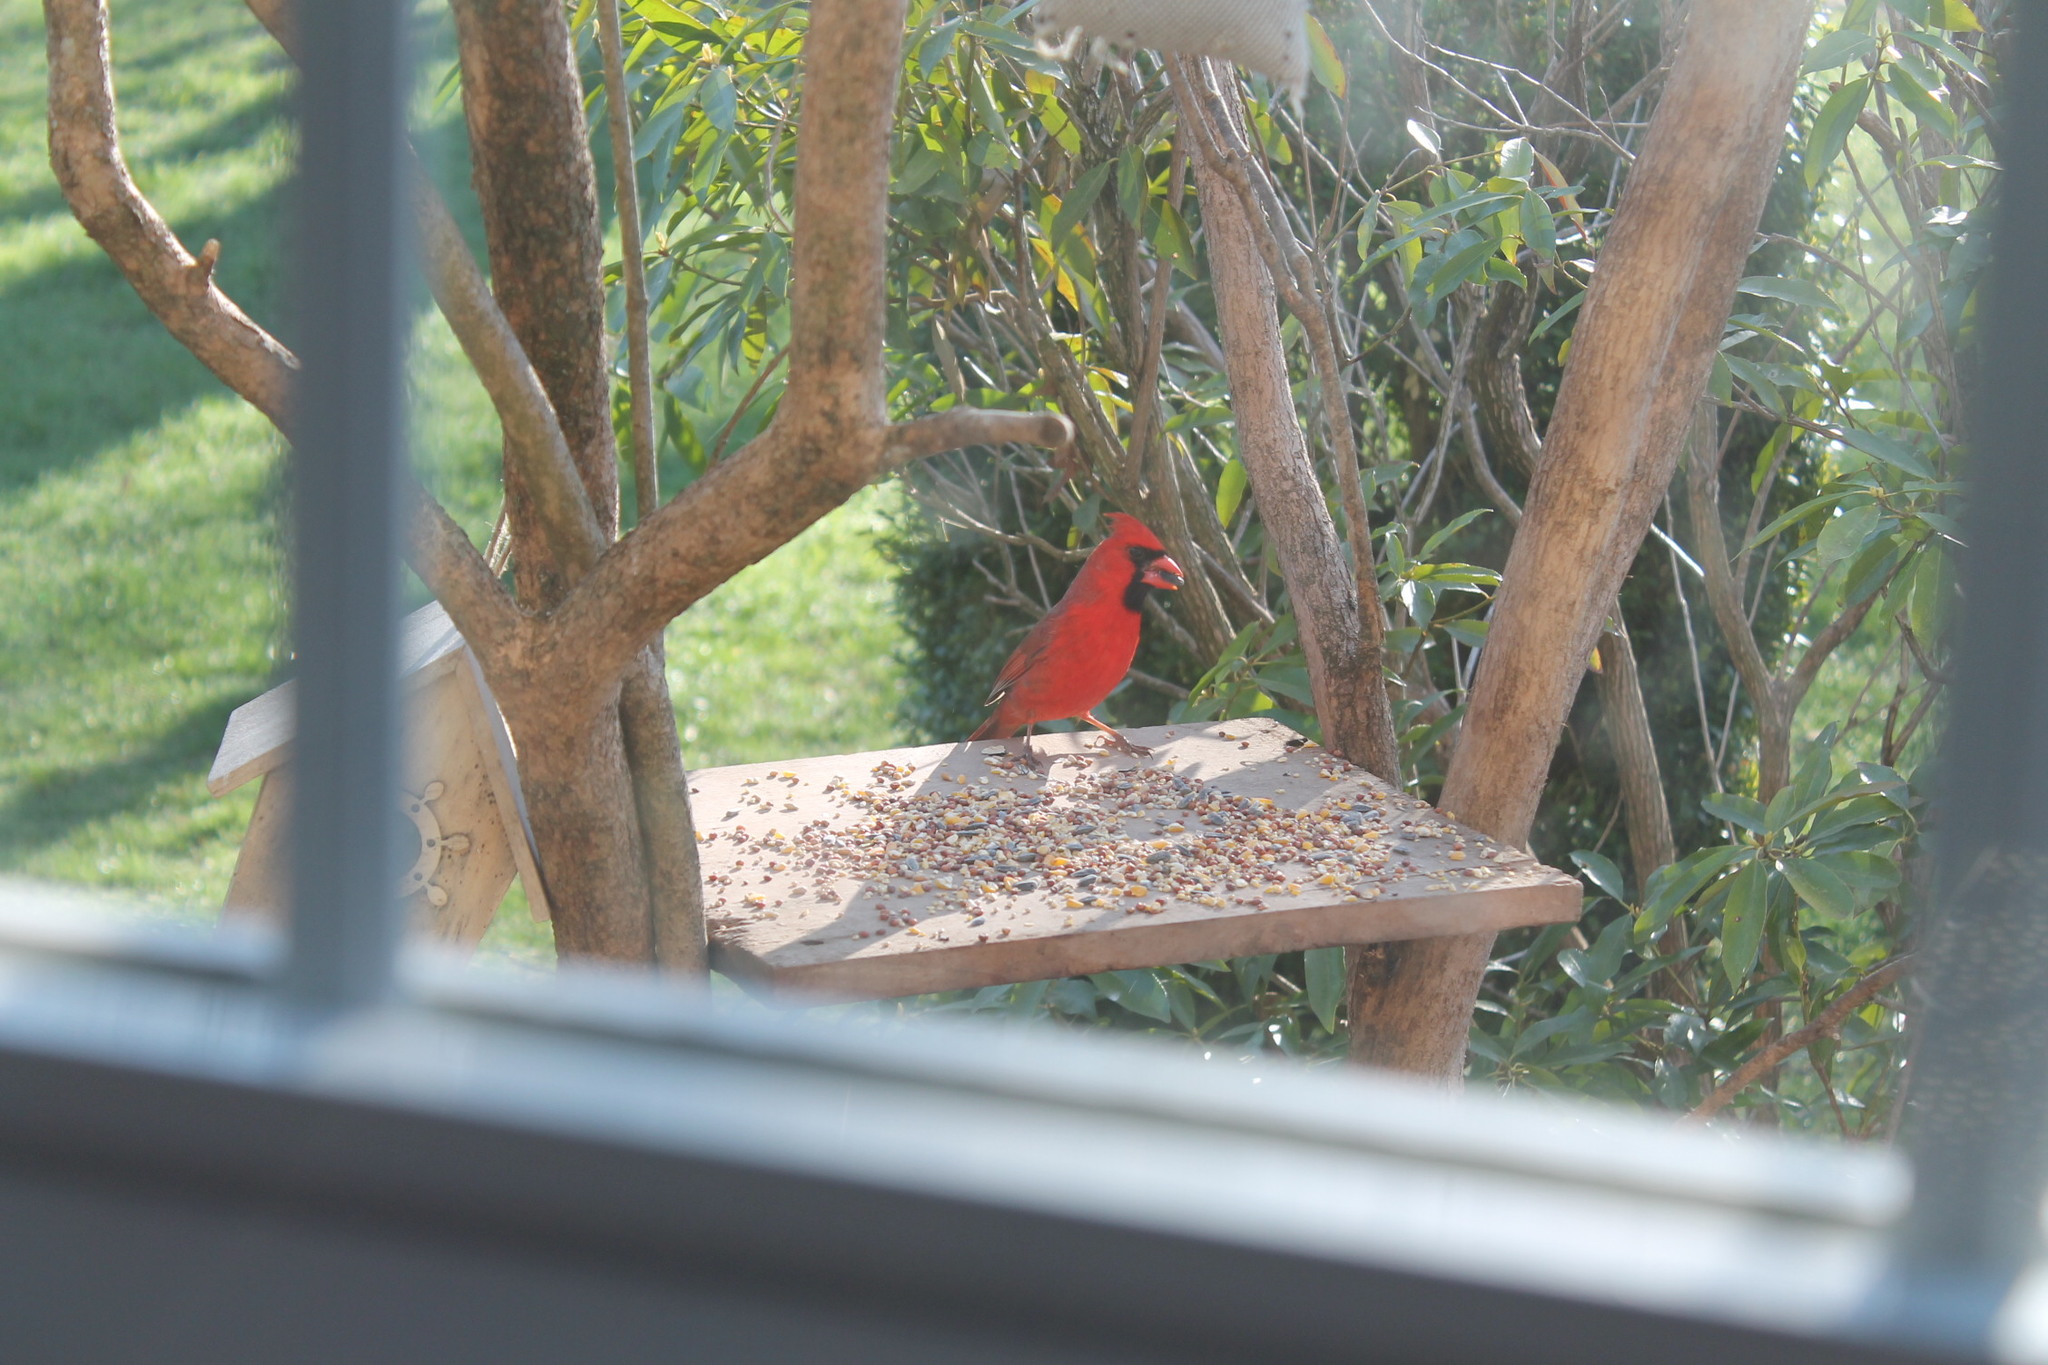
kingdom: Animalia
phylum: Chordata
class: Aves
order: Passeriformes
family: Cardinalidae
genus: Cardinalis
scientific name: Cardinalis cardinalis
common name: Northern cardinal
